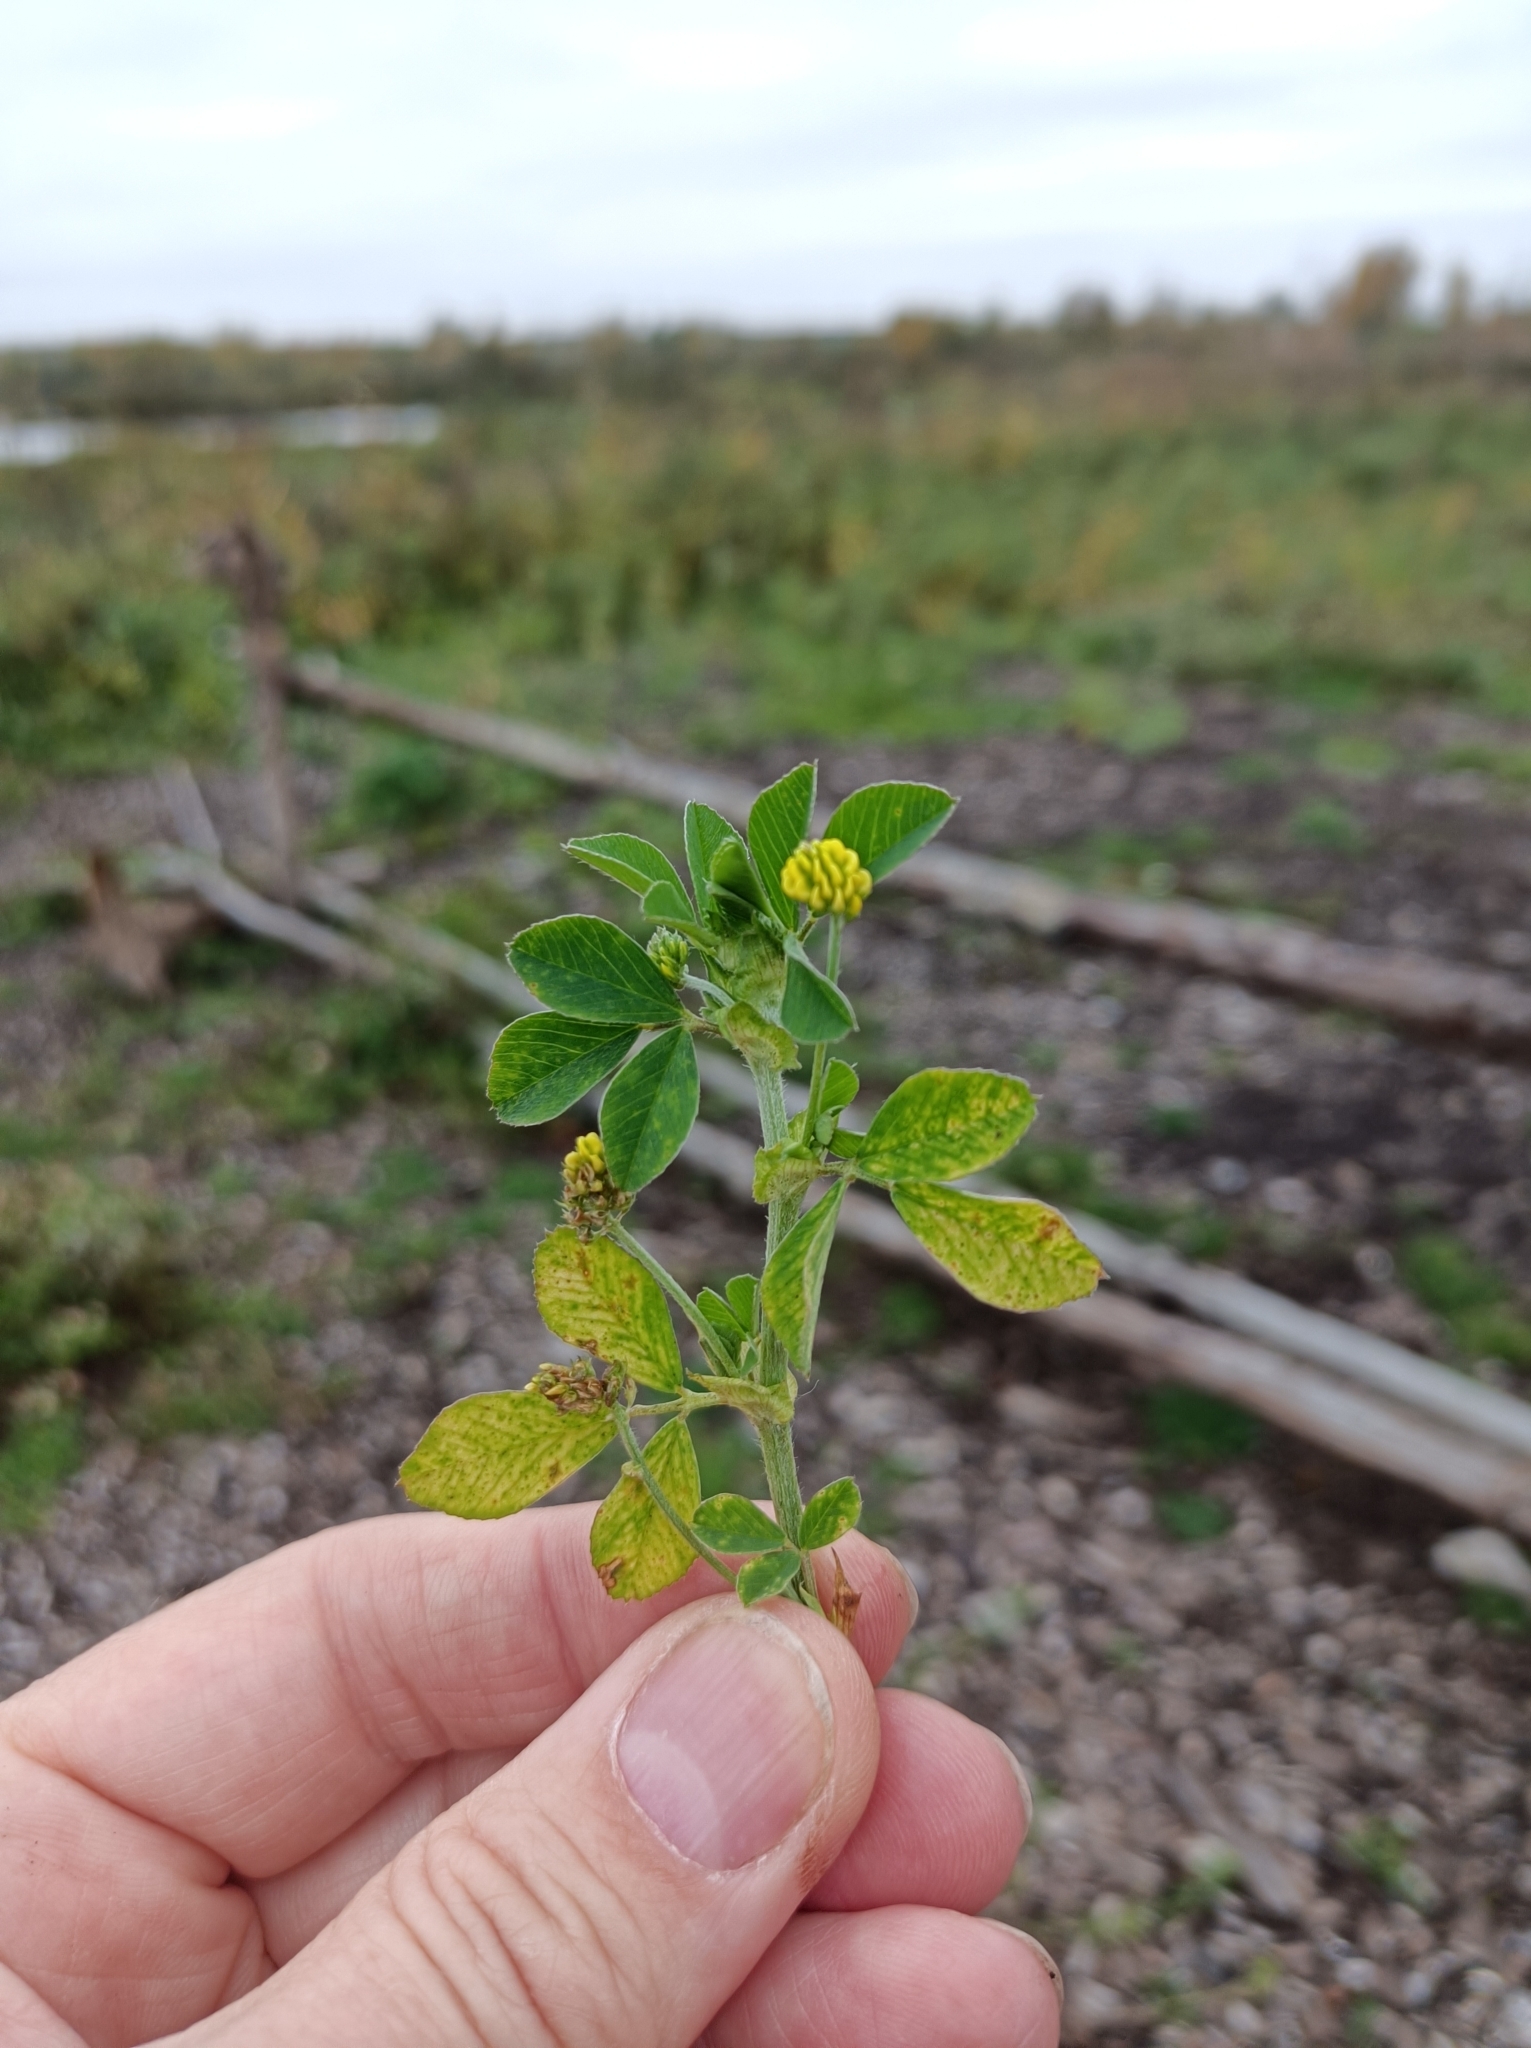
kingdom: Plantae
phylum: Tracheophyta
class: Magnoliopsida
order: Fabales
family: Fabaceae
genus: Medicago
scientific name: Medicago lupulina
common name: Black medick
